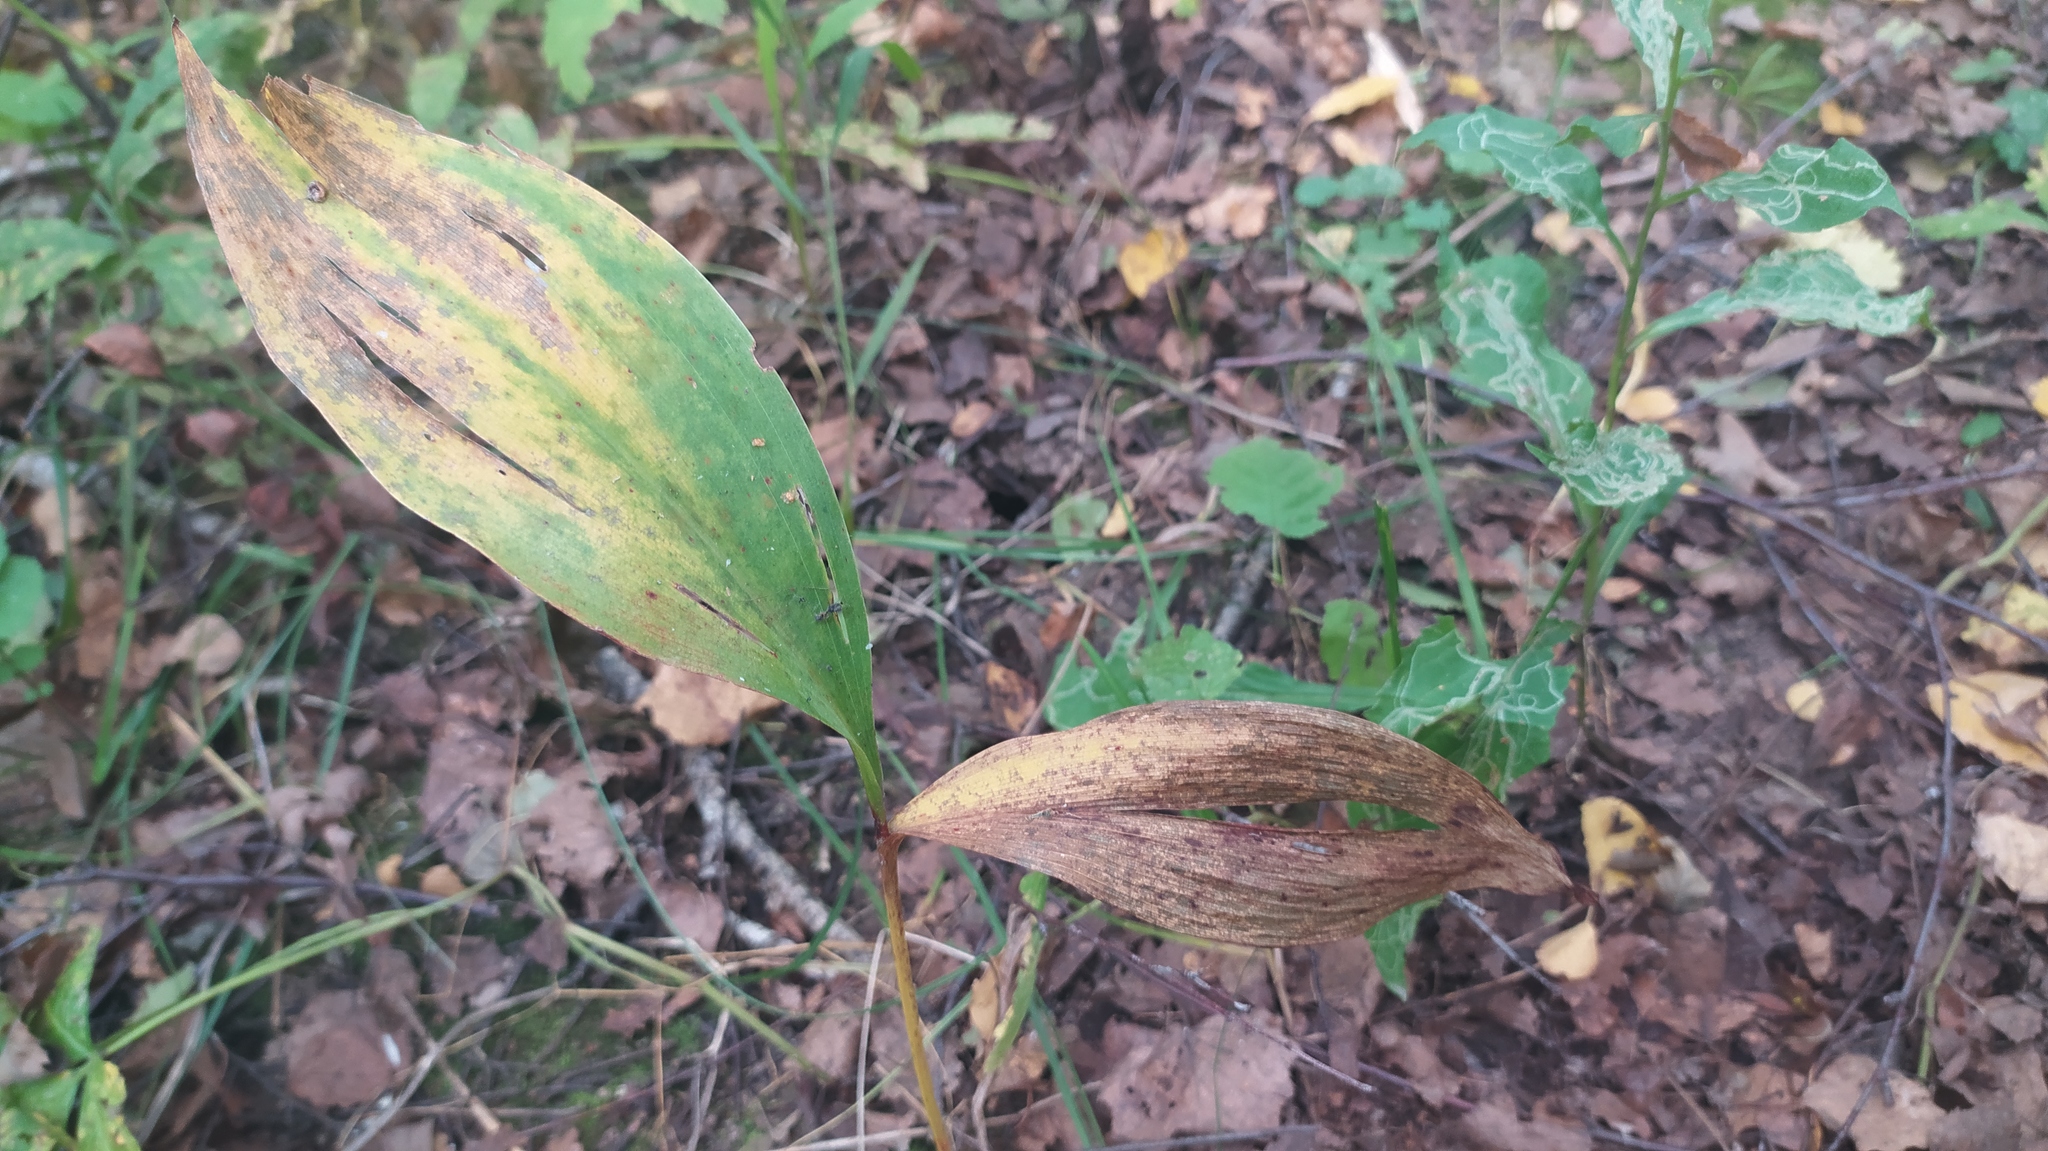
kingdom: Plantae
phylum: Tracheophyta
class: Liliopsida
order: Asparagales
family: Asparagaceae
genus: Convallaria
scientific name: Convallaria majalis
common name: Lily-of-the-valley
